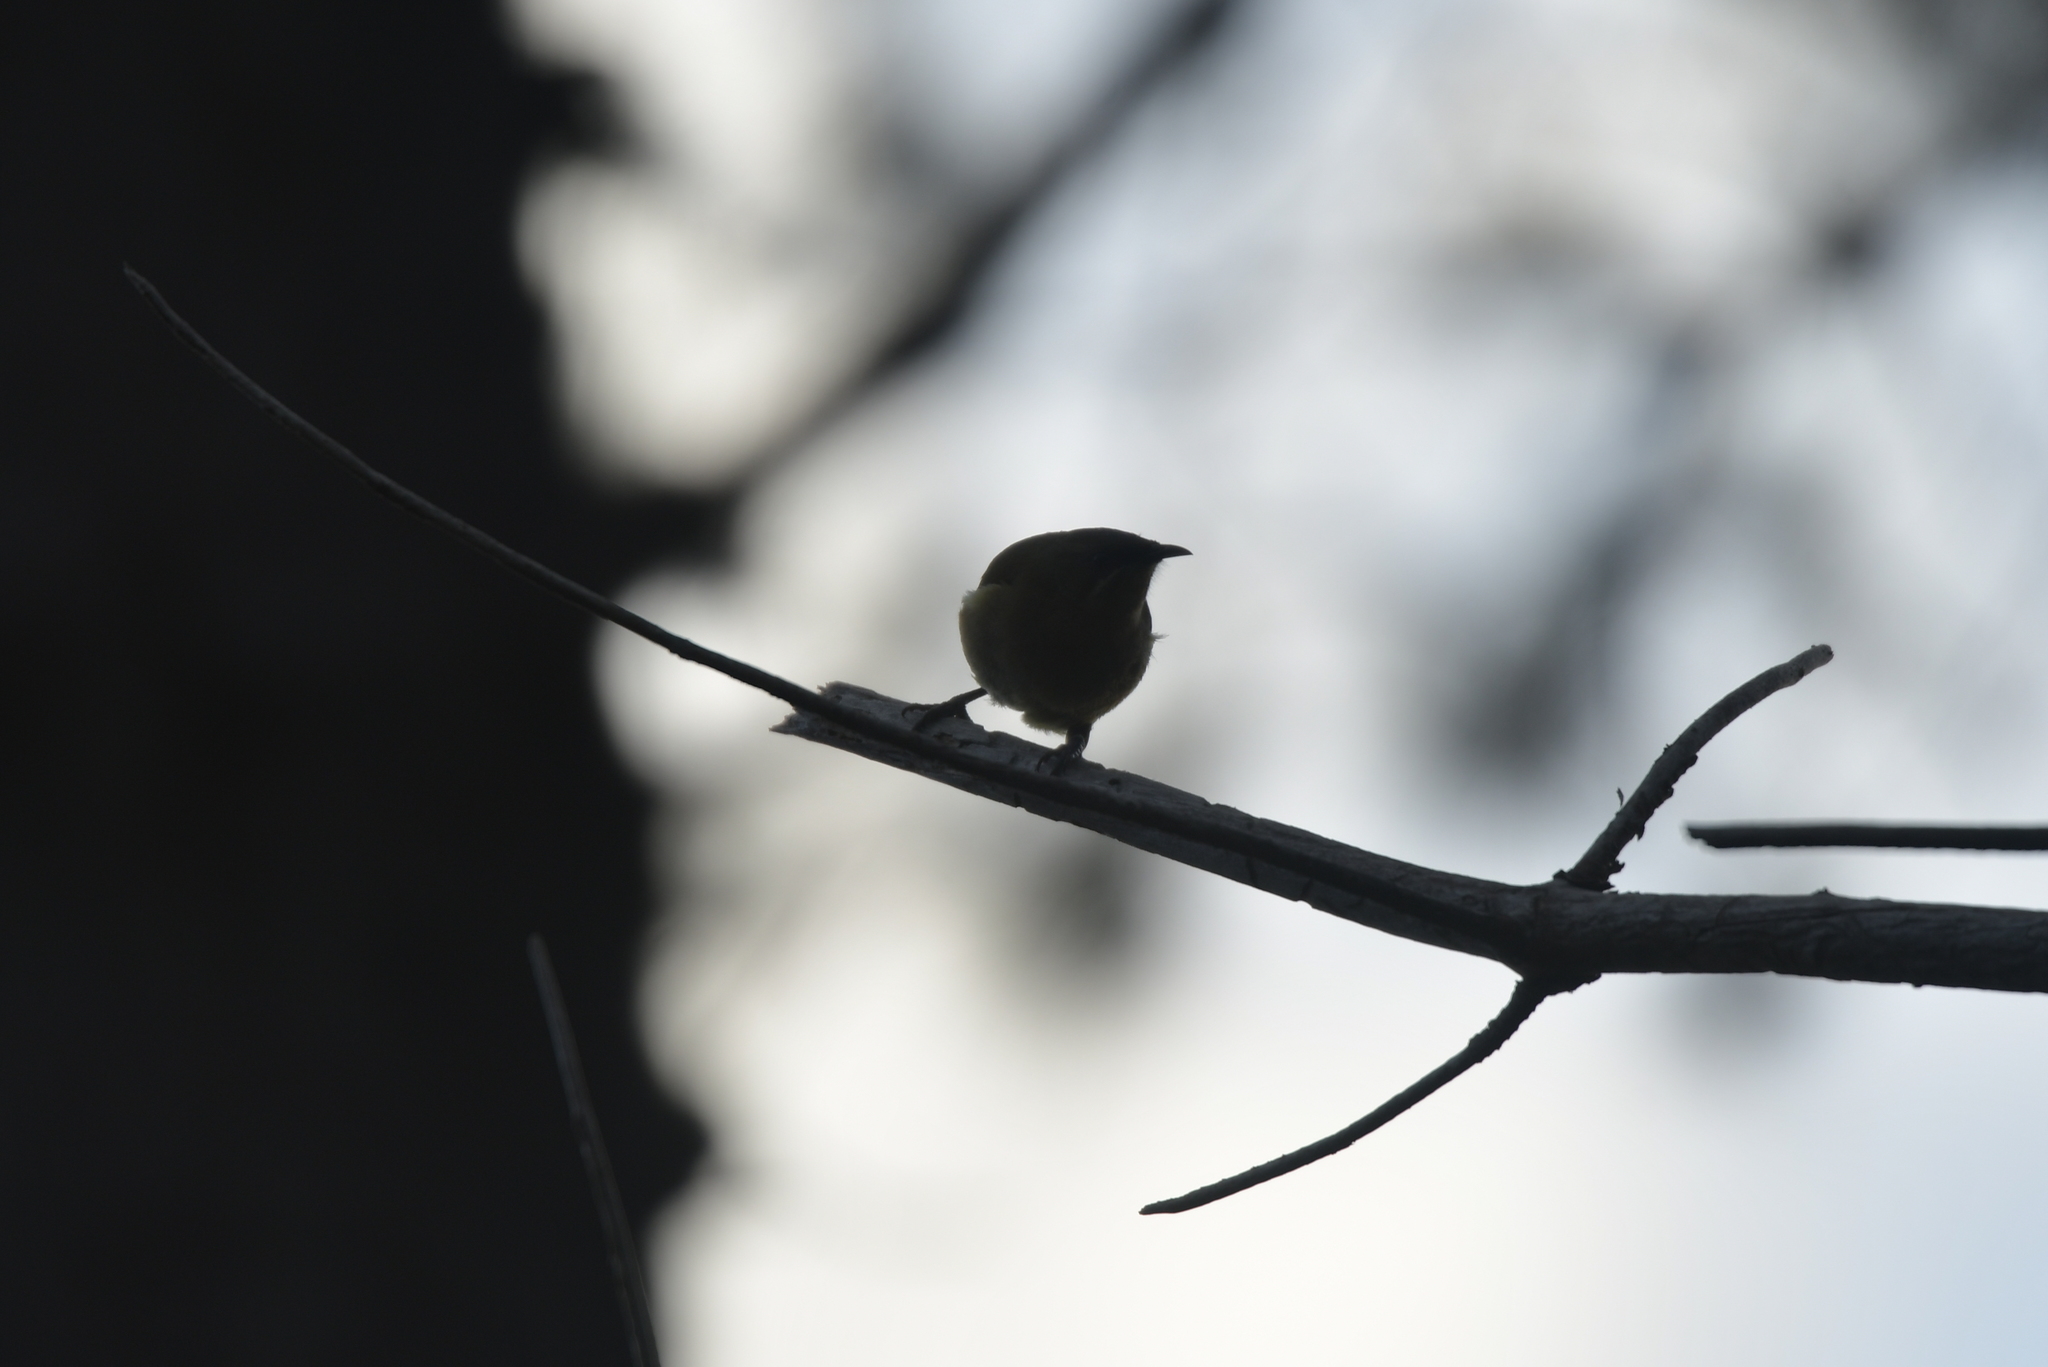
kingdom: Animalia
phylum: Chordata
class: Aves
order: Passeriformes
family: Meliphagidae
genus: Anthornis
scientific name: Anthornis melanura
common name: New zealand bellbird
